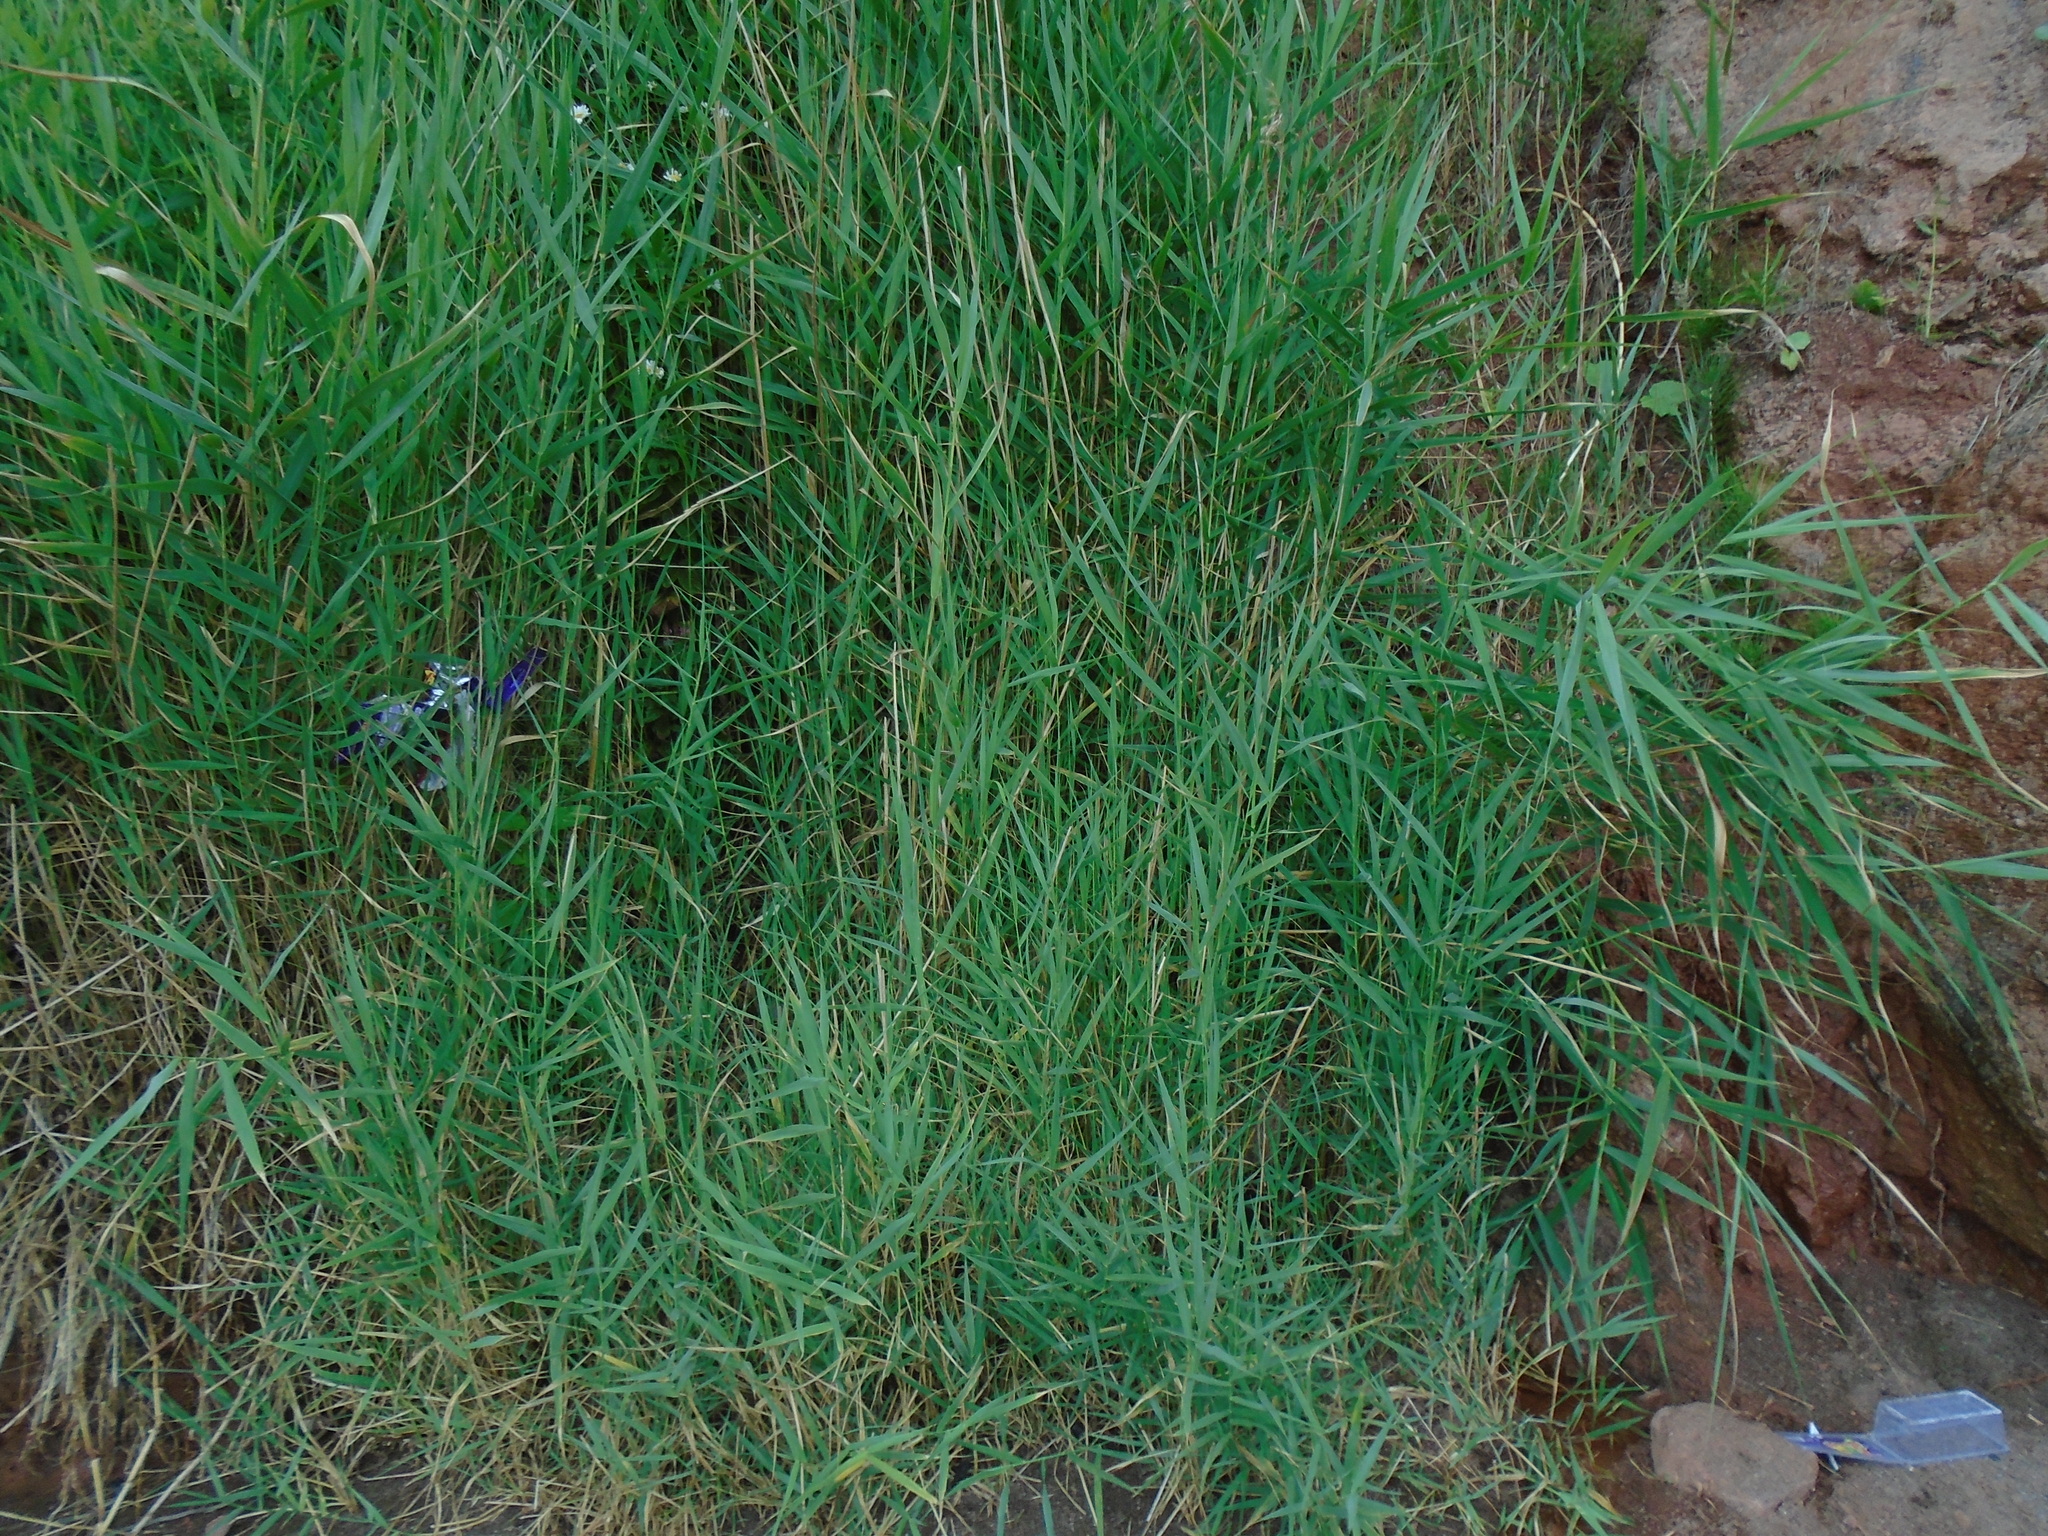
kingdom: Plantae
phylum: Tracheophyta
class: Liliopsida
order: Poales
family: Poaceae
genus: Phragmites
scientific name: Phragmites australis
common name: Common reed
